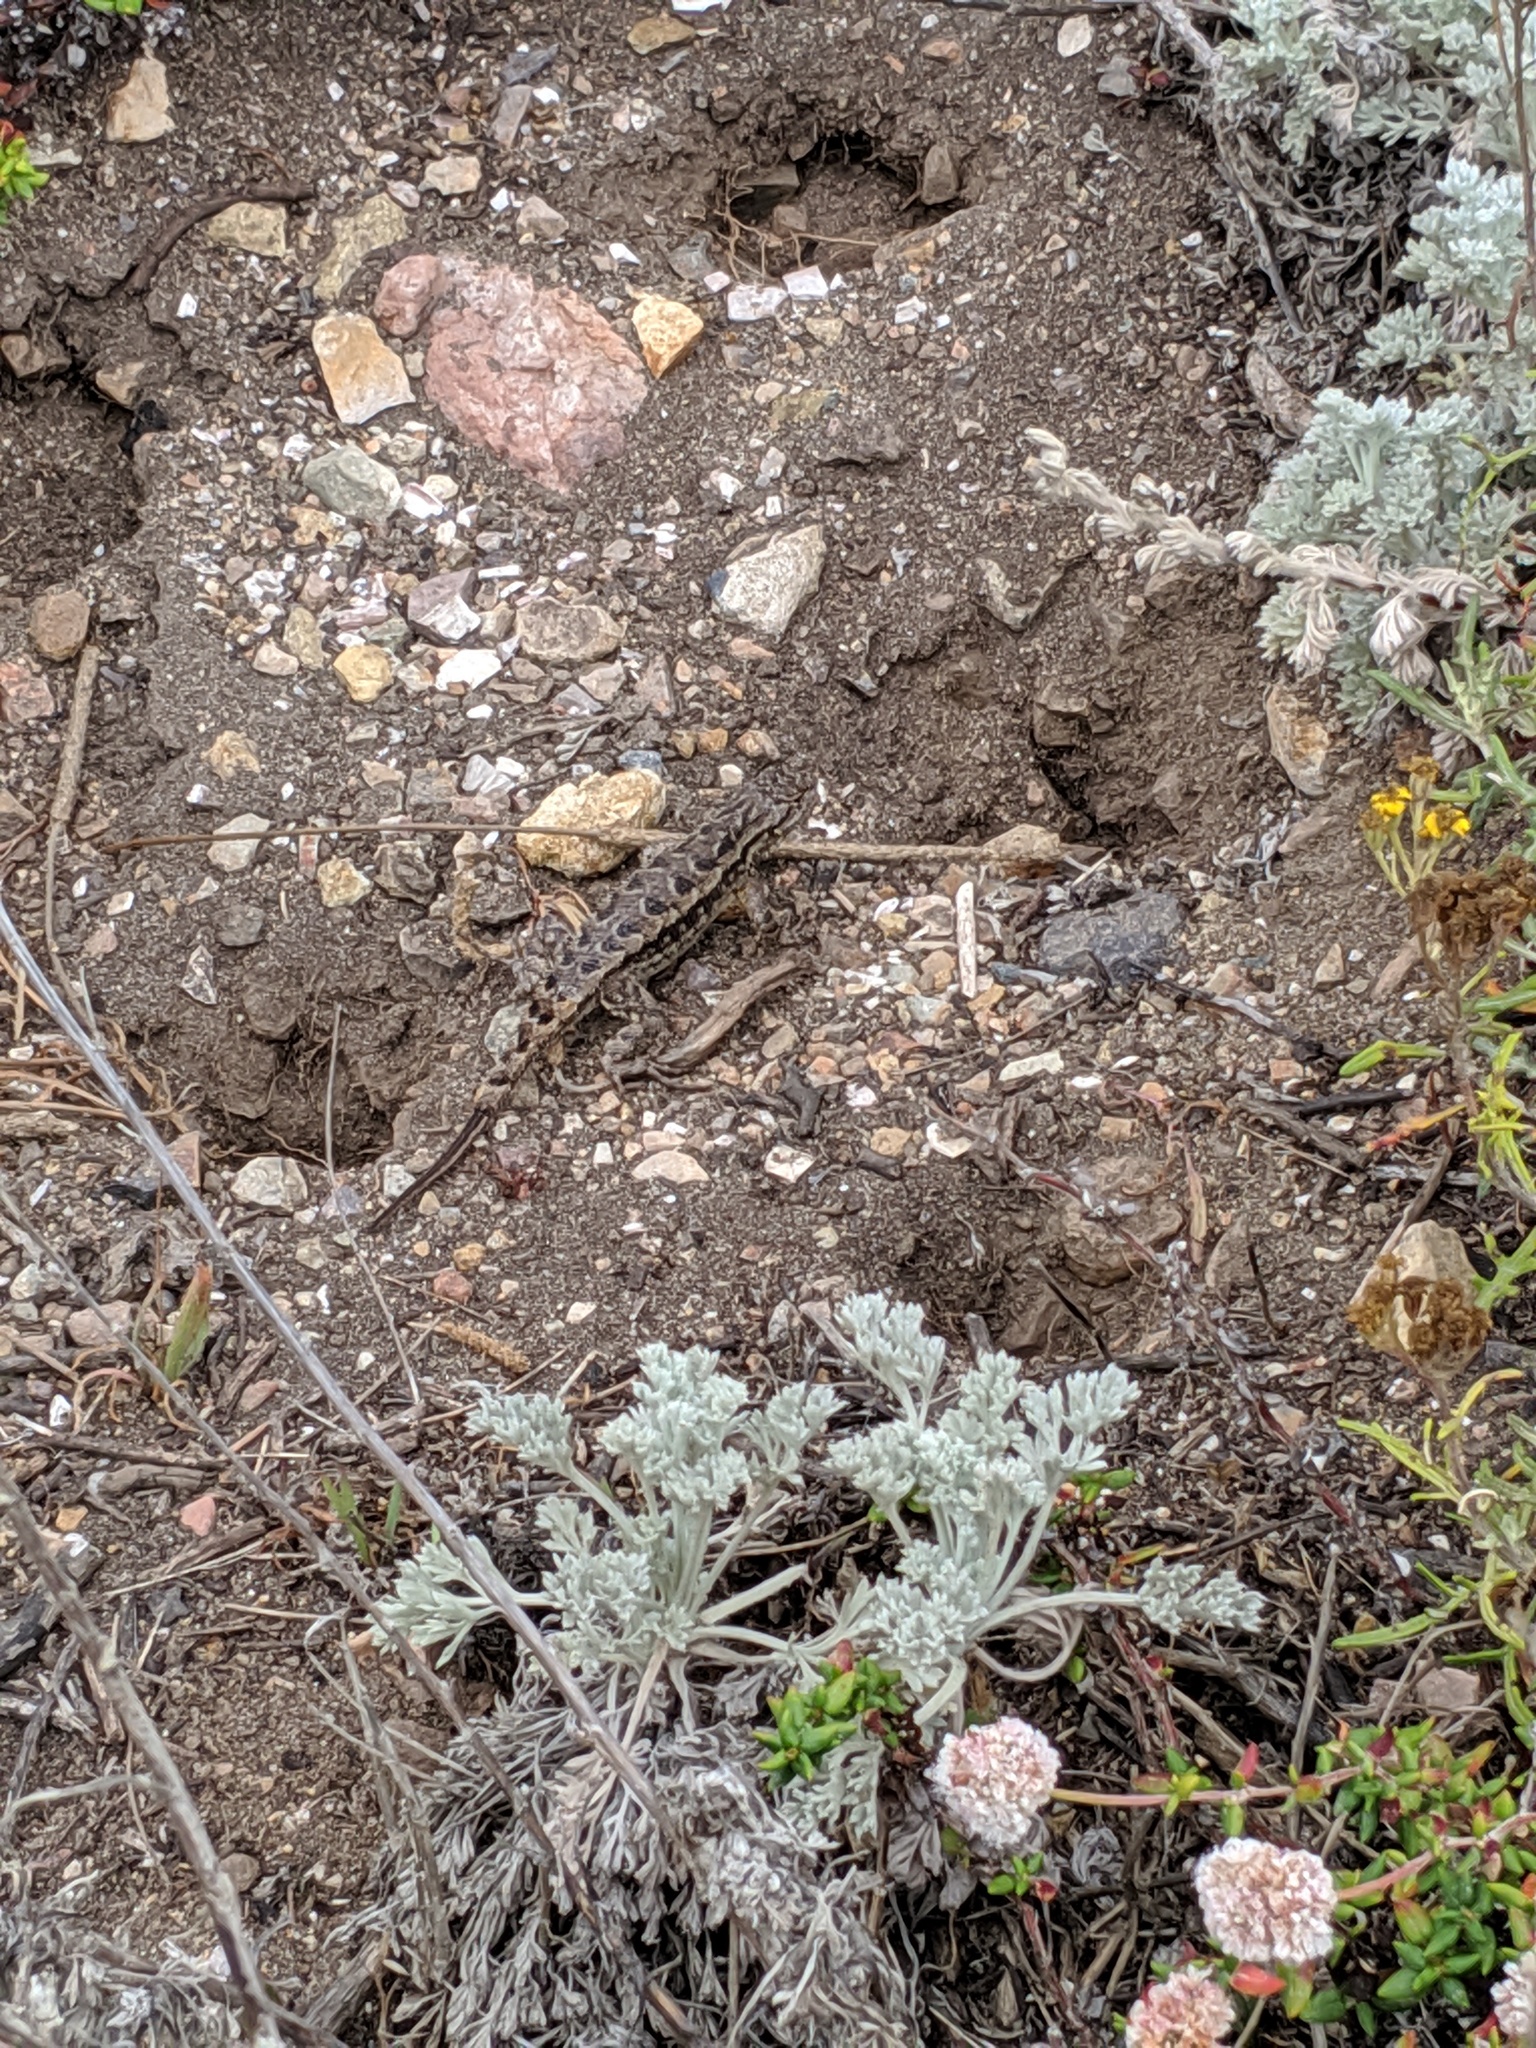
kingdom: Animalia
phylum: Chordata
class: Squamata
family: Phrynosomatidae
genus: Sceloporus
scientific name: Sceloporus occidentalis
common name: Western fence lizard
